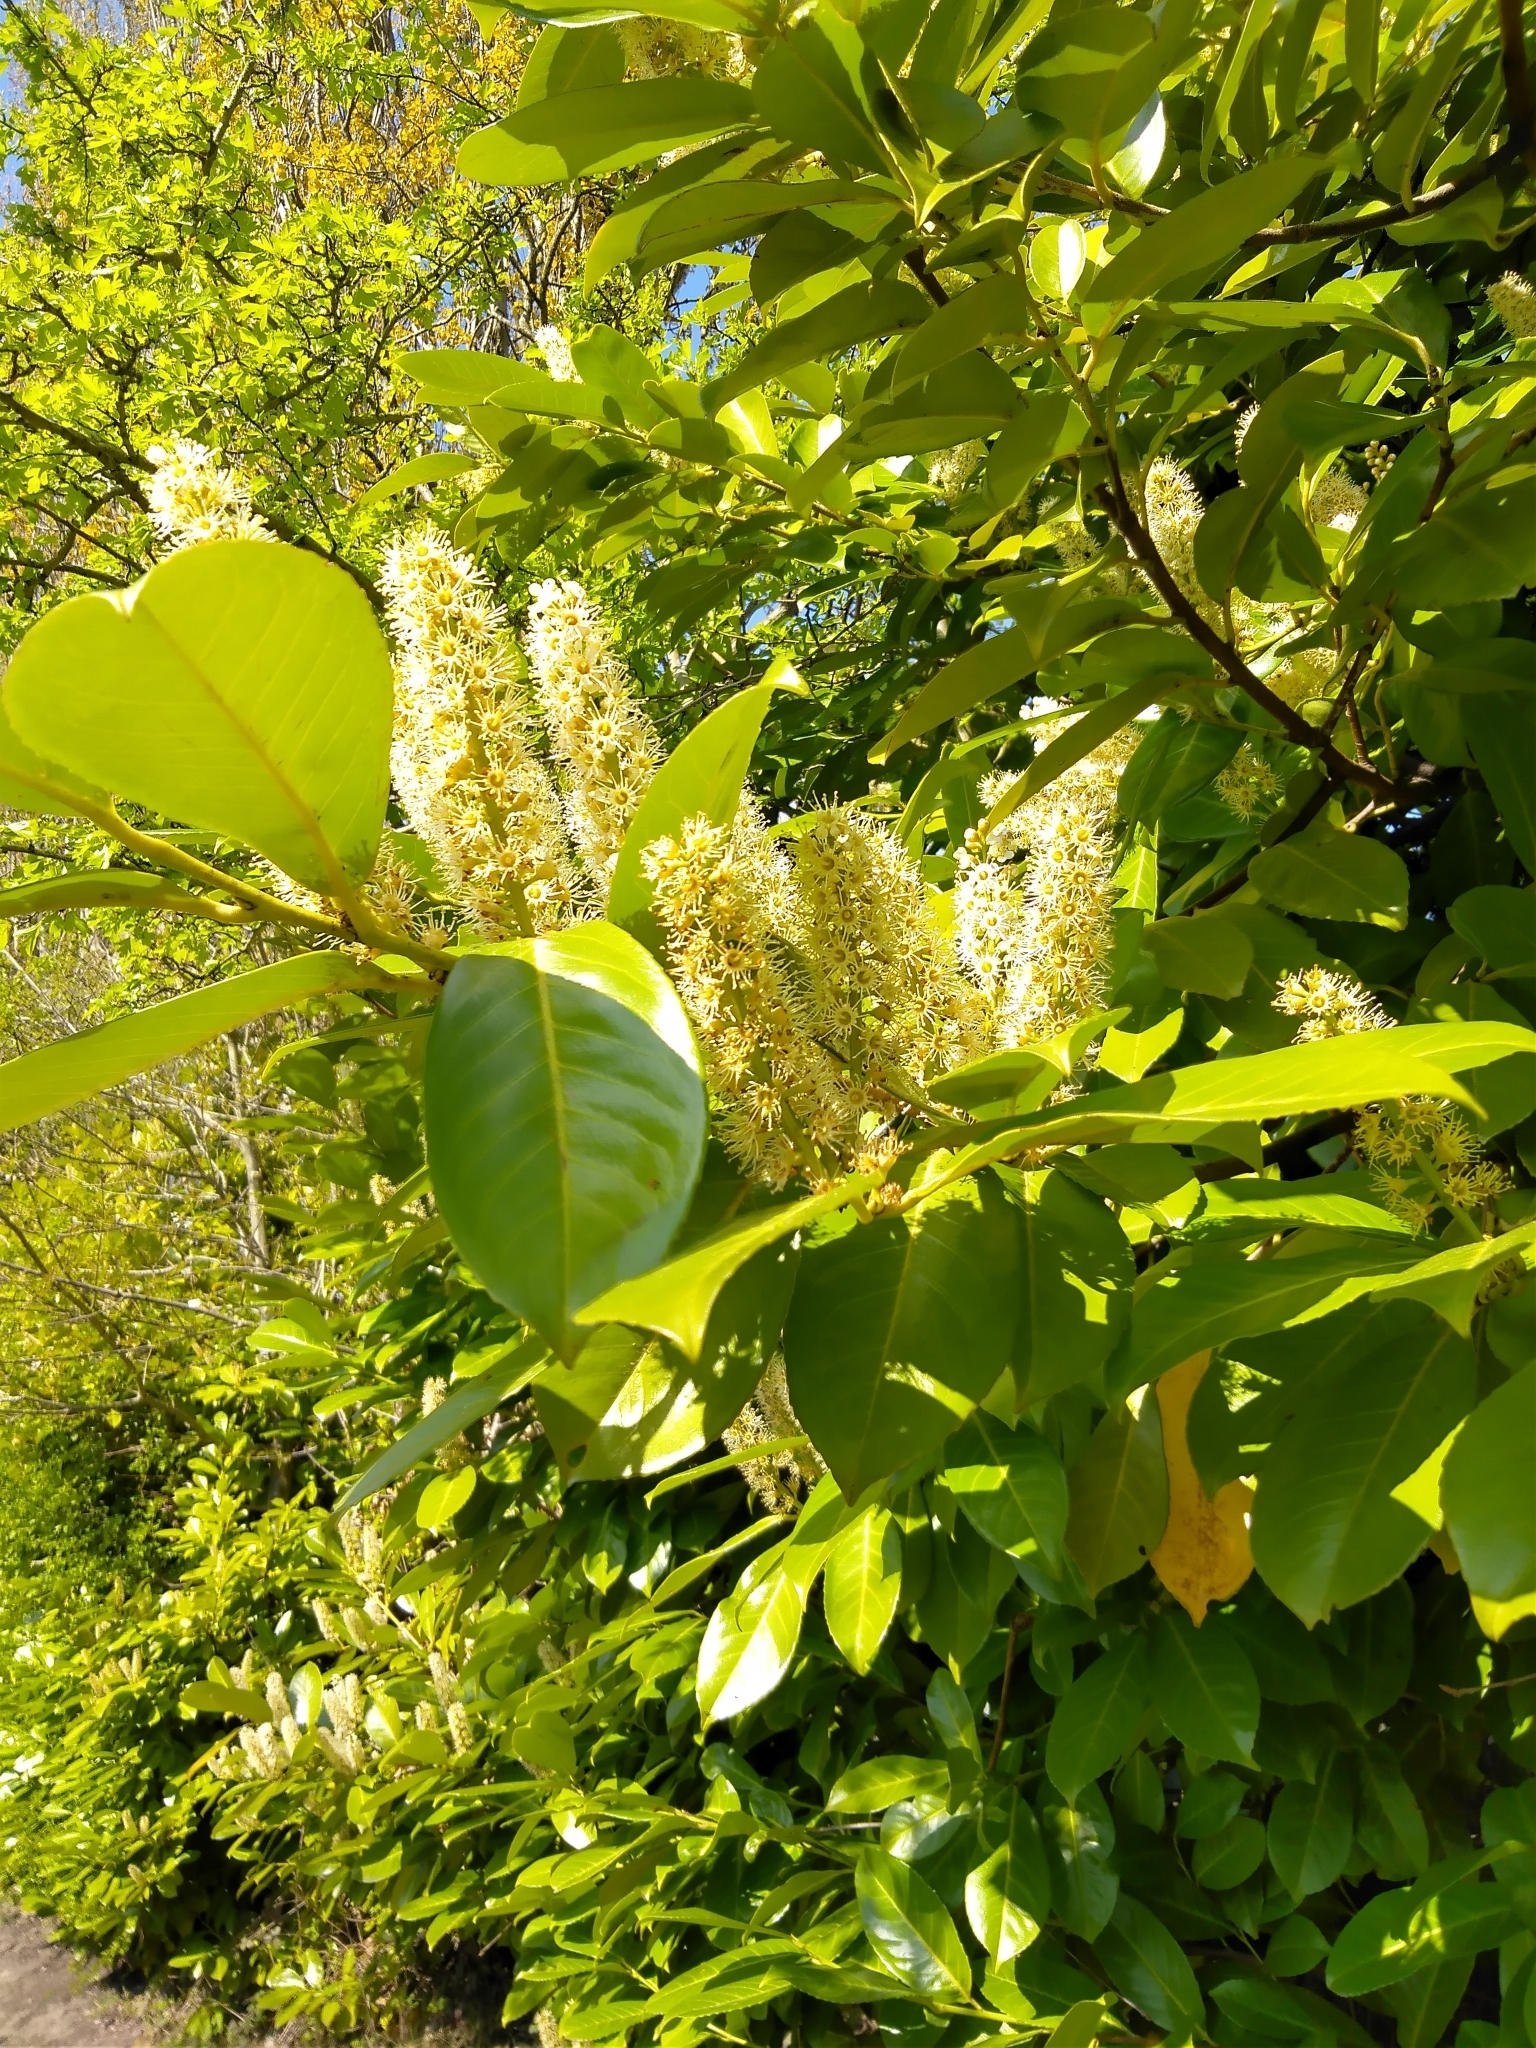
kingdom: Plantae
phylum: Tracheophyta
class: Magnoliopsida
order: Rosales
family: Rosaceae
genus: Prunus
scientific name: Prunus laurocerasus
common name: Cherry laurel
